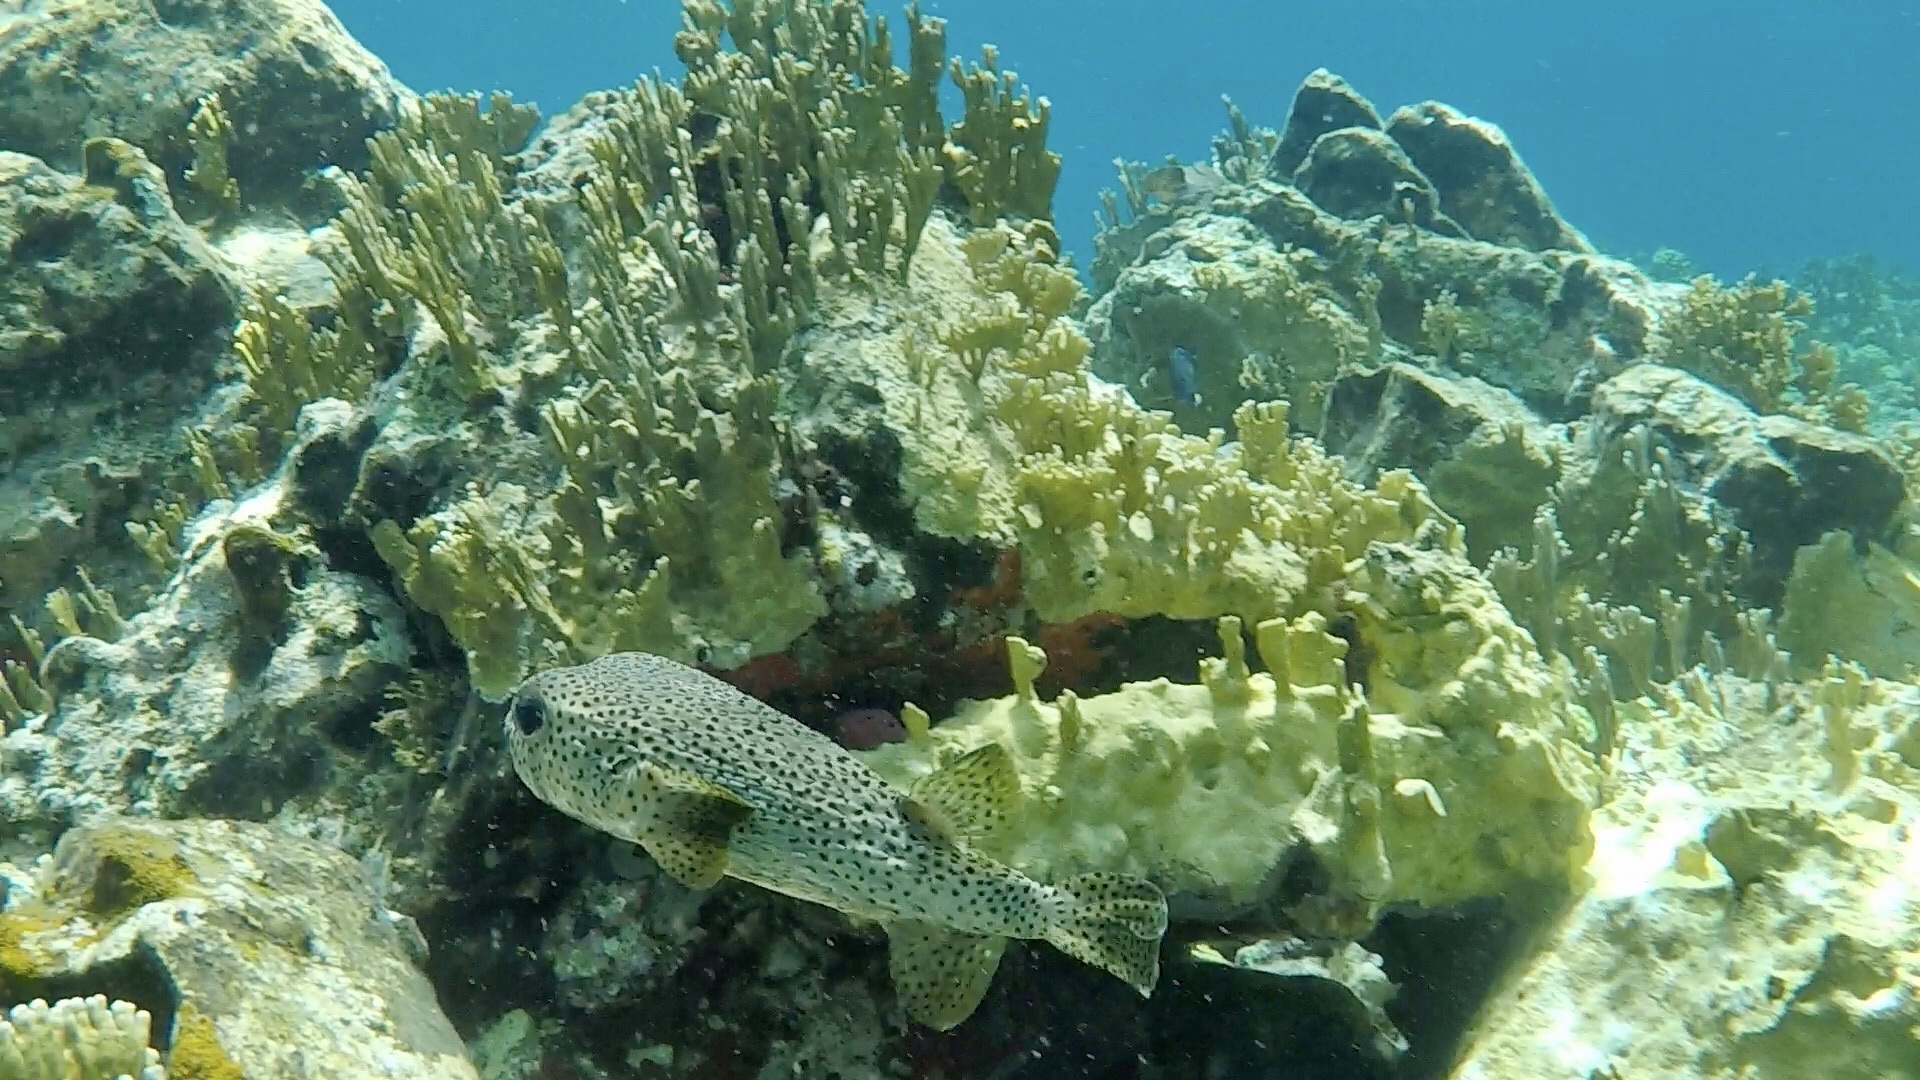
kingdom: Animalia
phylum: Chordata
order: Tetraodontiformes
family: Diodontidae
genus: Diodon
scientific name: Diodon hystrix
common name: Giant porcupinefish
